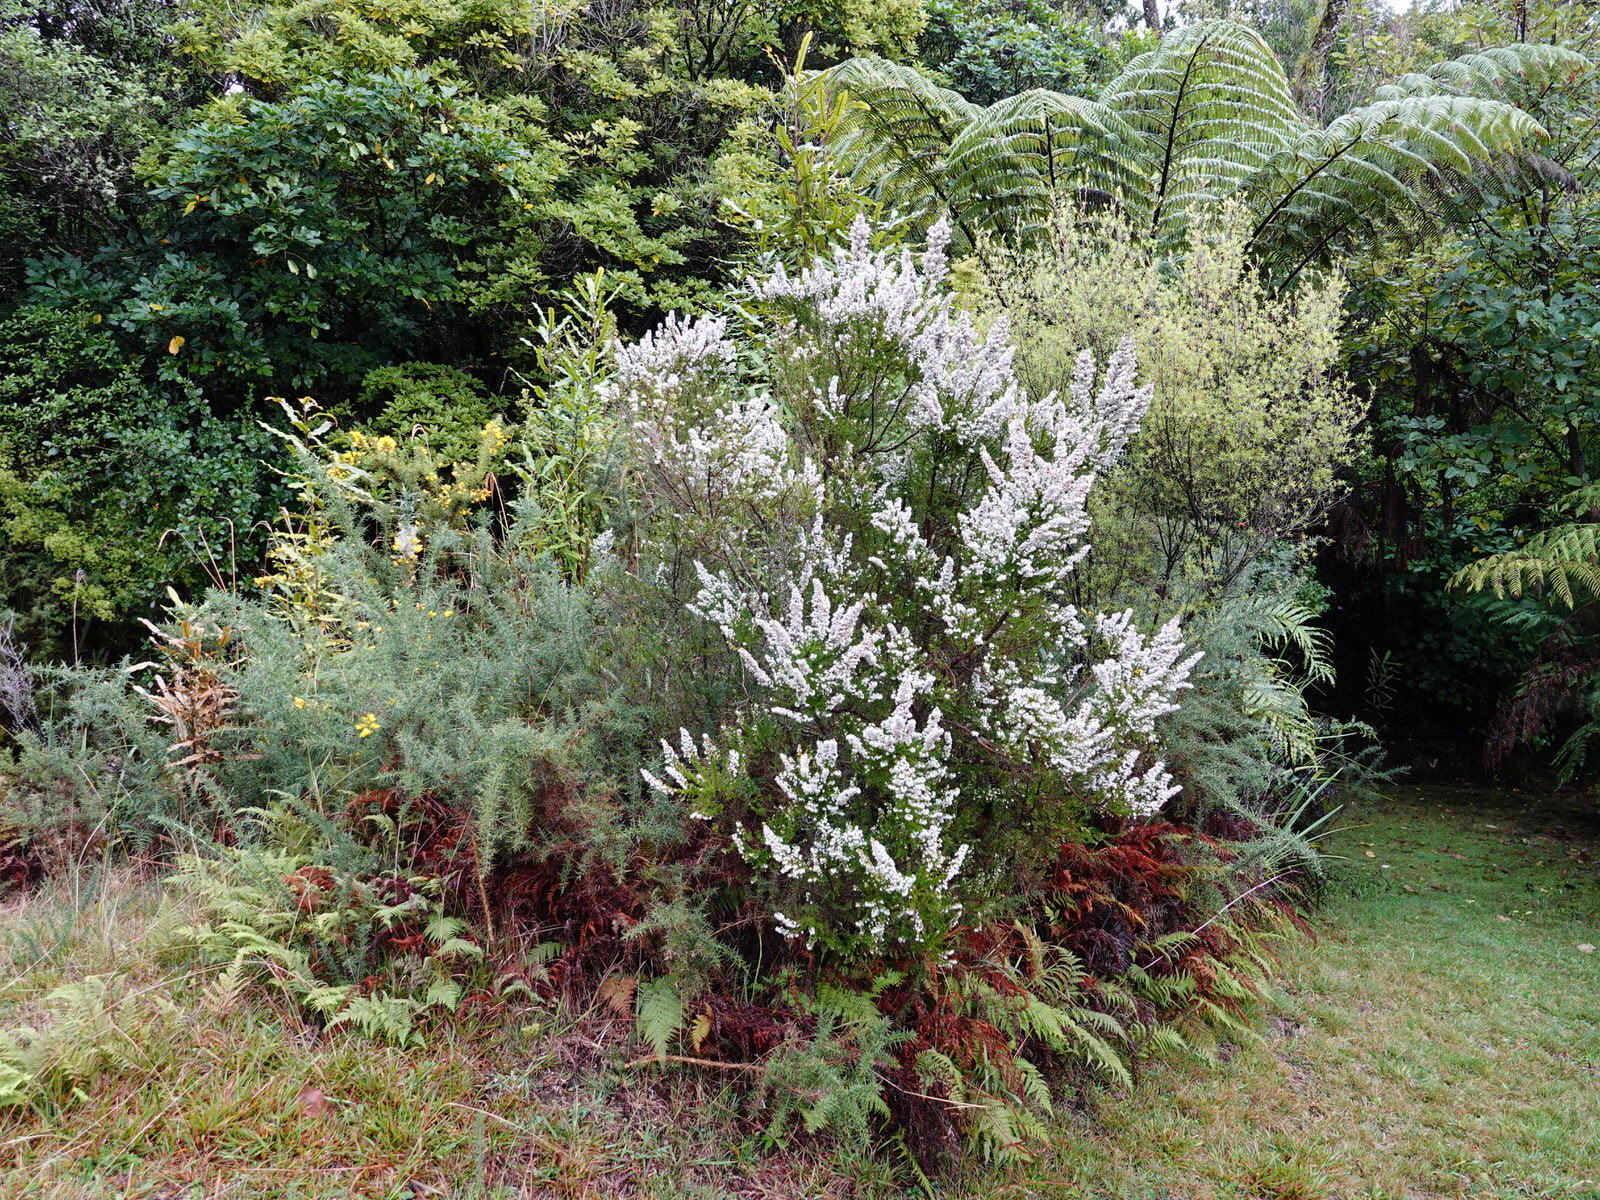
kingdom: Plantae
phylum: Tracheophyta
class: Magnoliopsida
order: Ericales
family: Ericaceae
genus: Erica
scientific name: Erica lusitanica
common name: Spanish heath
